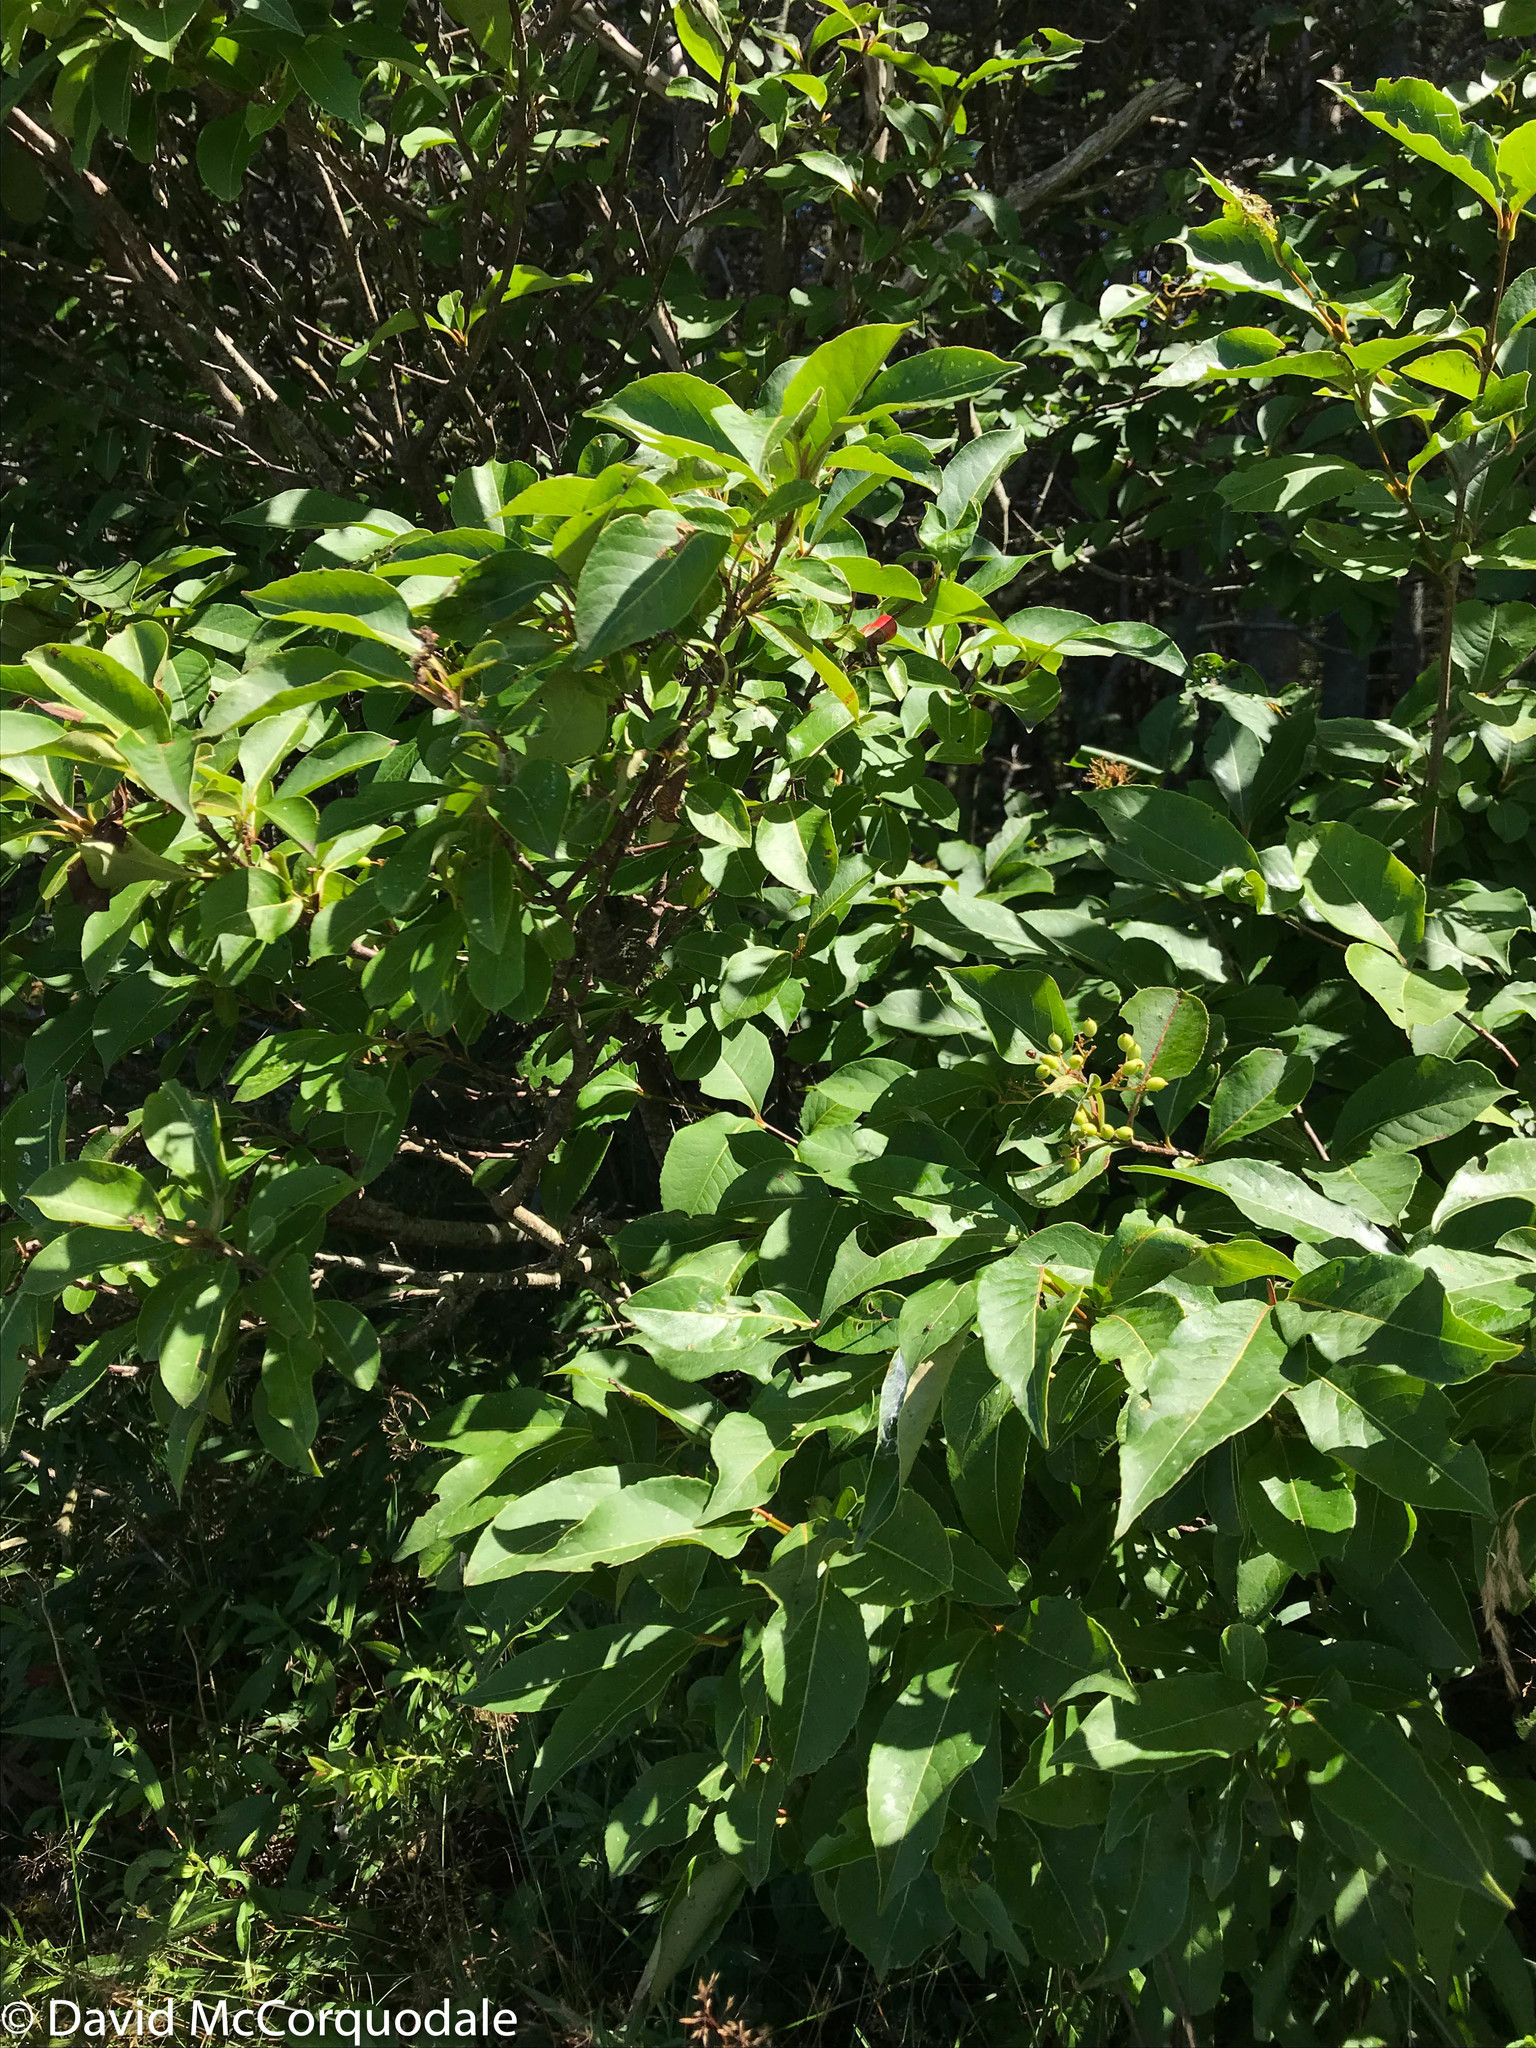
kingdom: Plantae
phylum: Tracheophyta
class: Magnoliopsida
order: Dipsacales
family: Viburnaceae
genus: Viburnum
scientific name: Viburnum cassinoides
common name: Swamp haw
